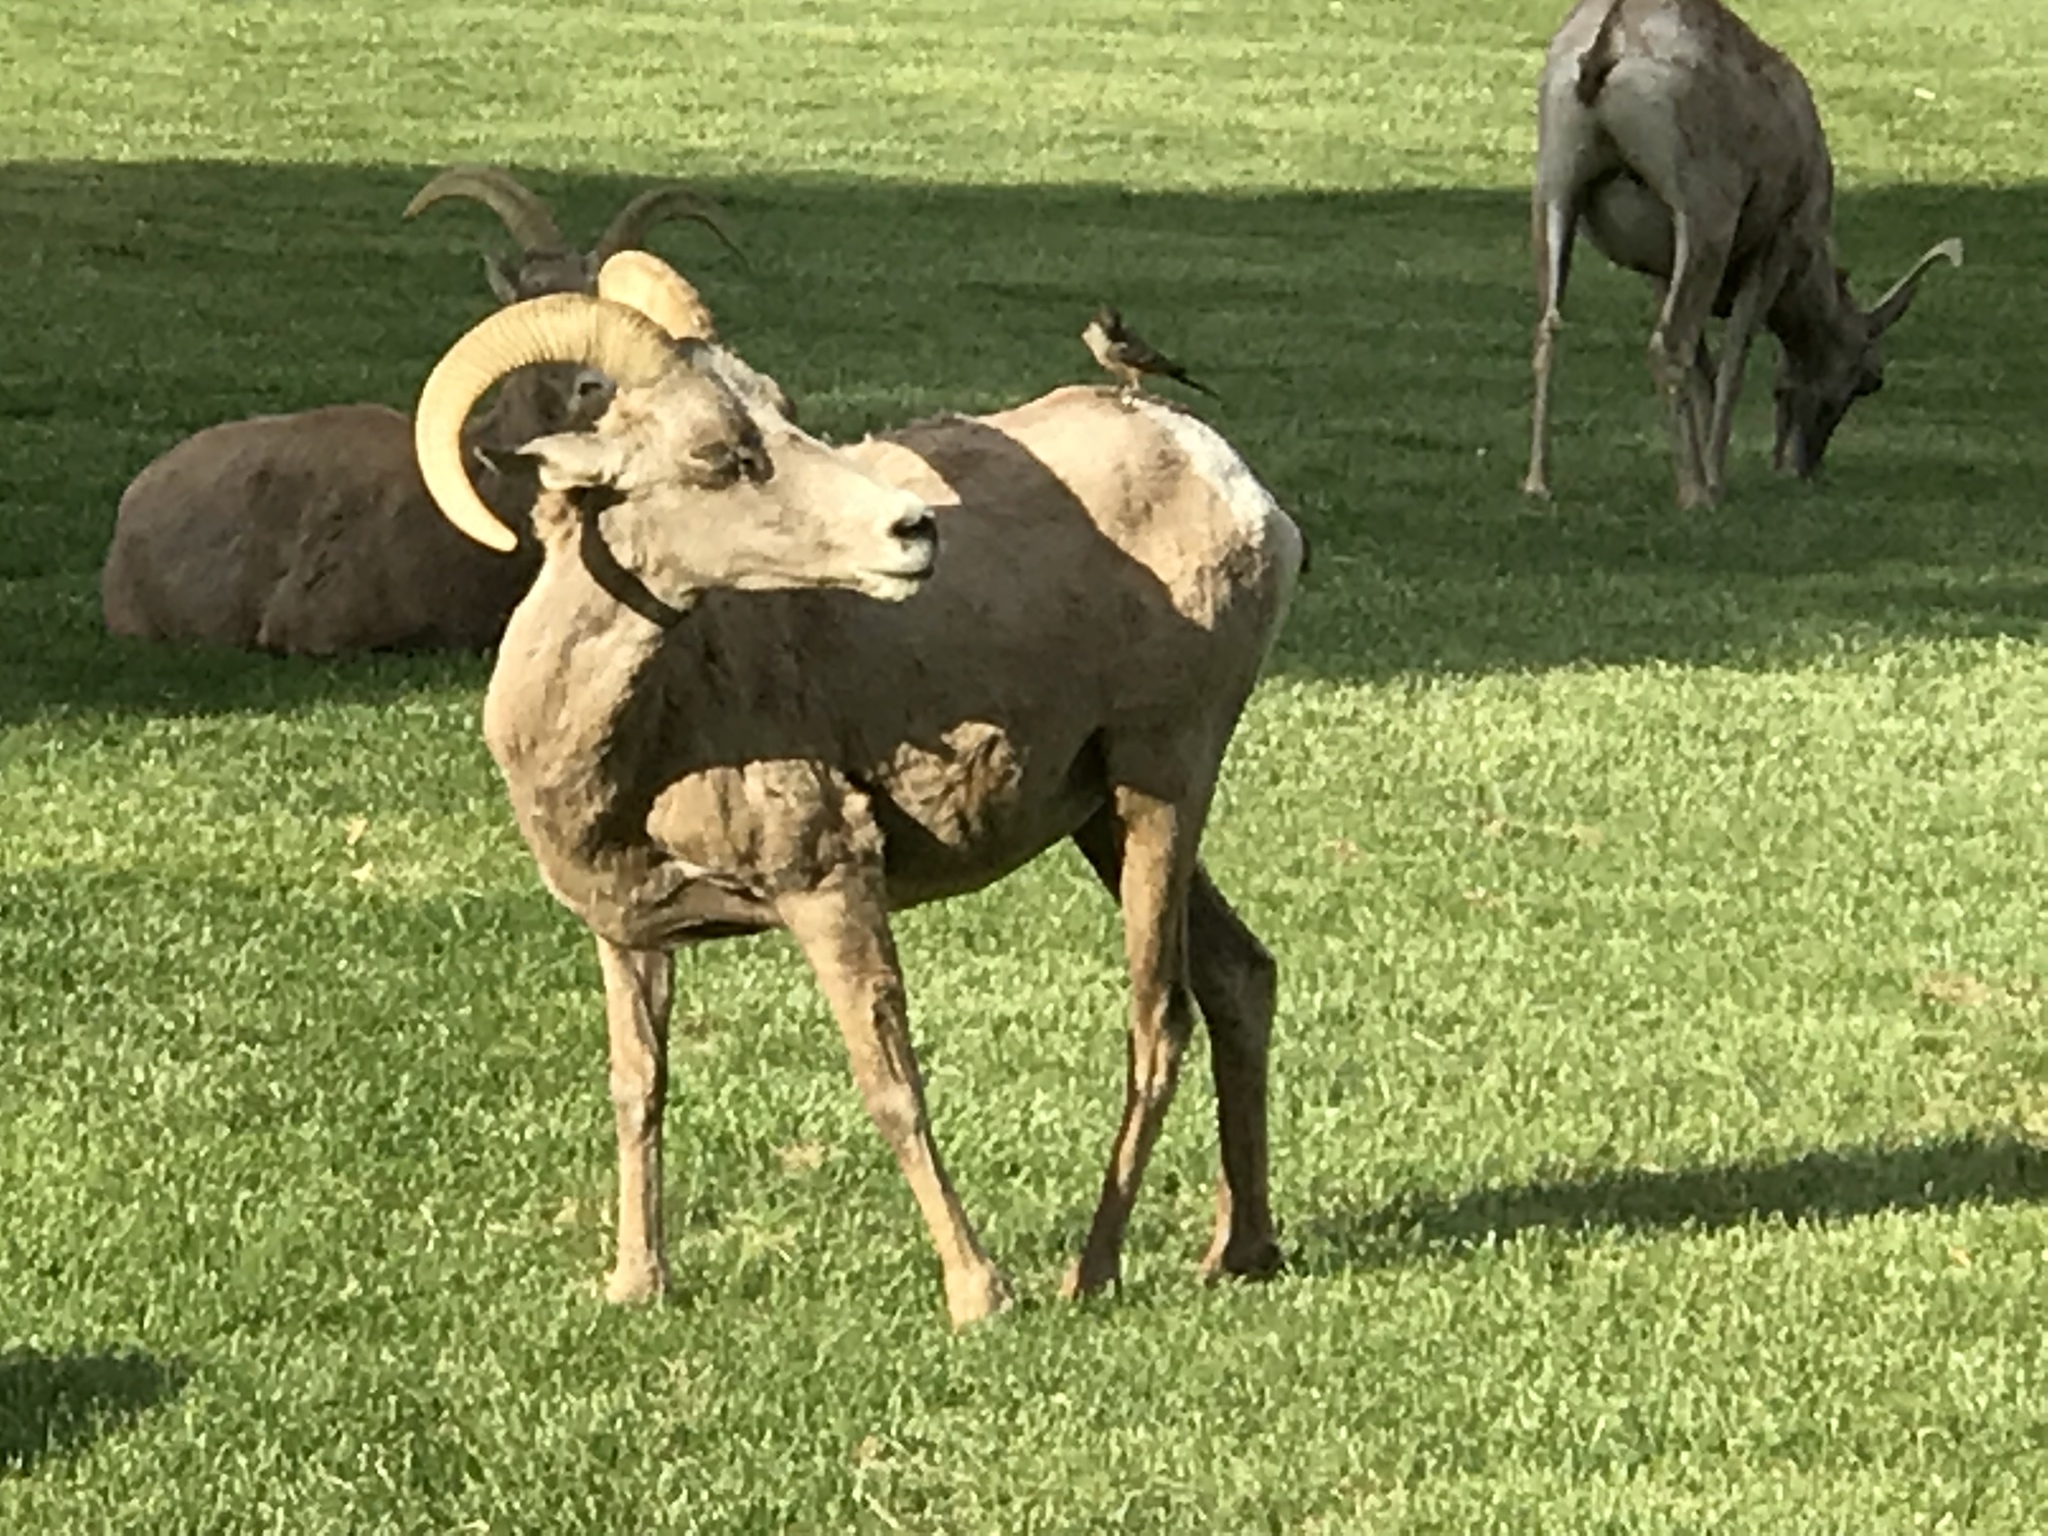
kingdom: Animalia
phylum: Chordata
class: Aves
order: Passeriformes
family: Tyrannidae
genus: Sayornis
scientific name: Sayornis saya
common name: Say's phoebe
